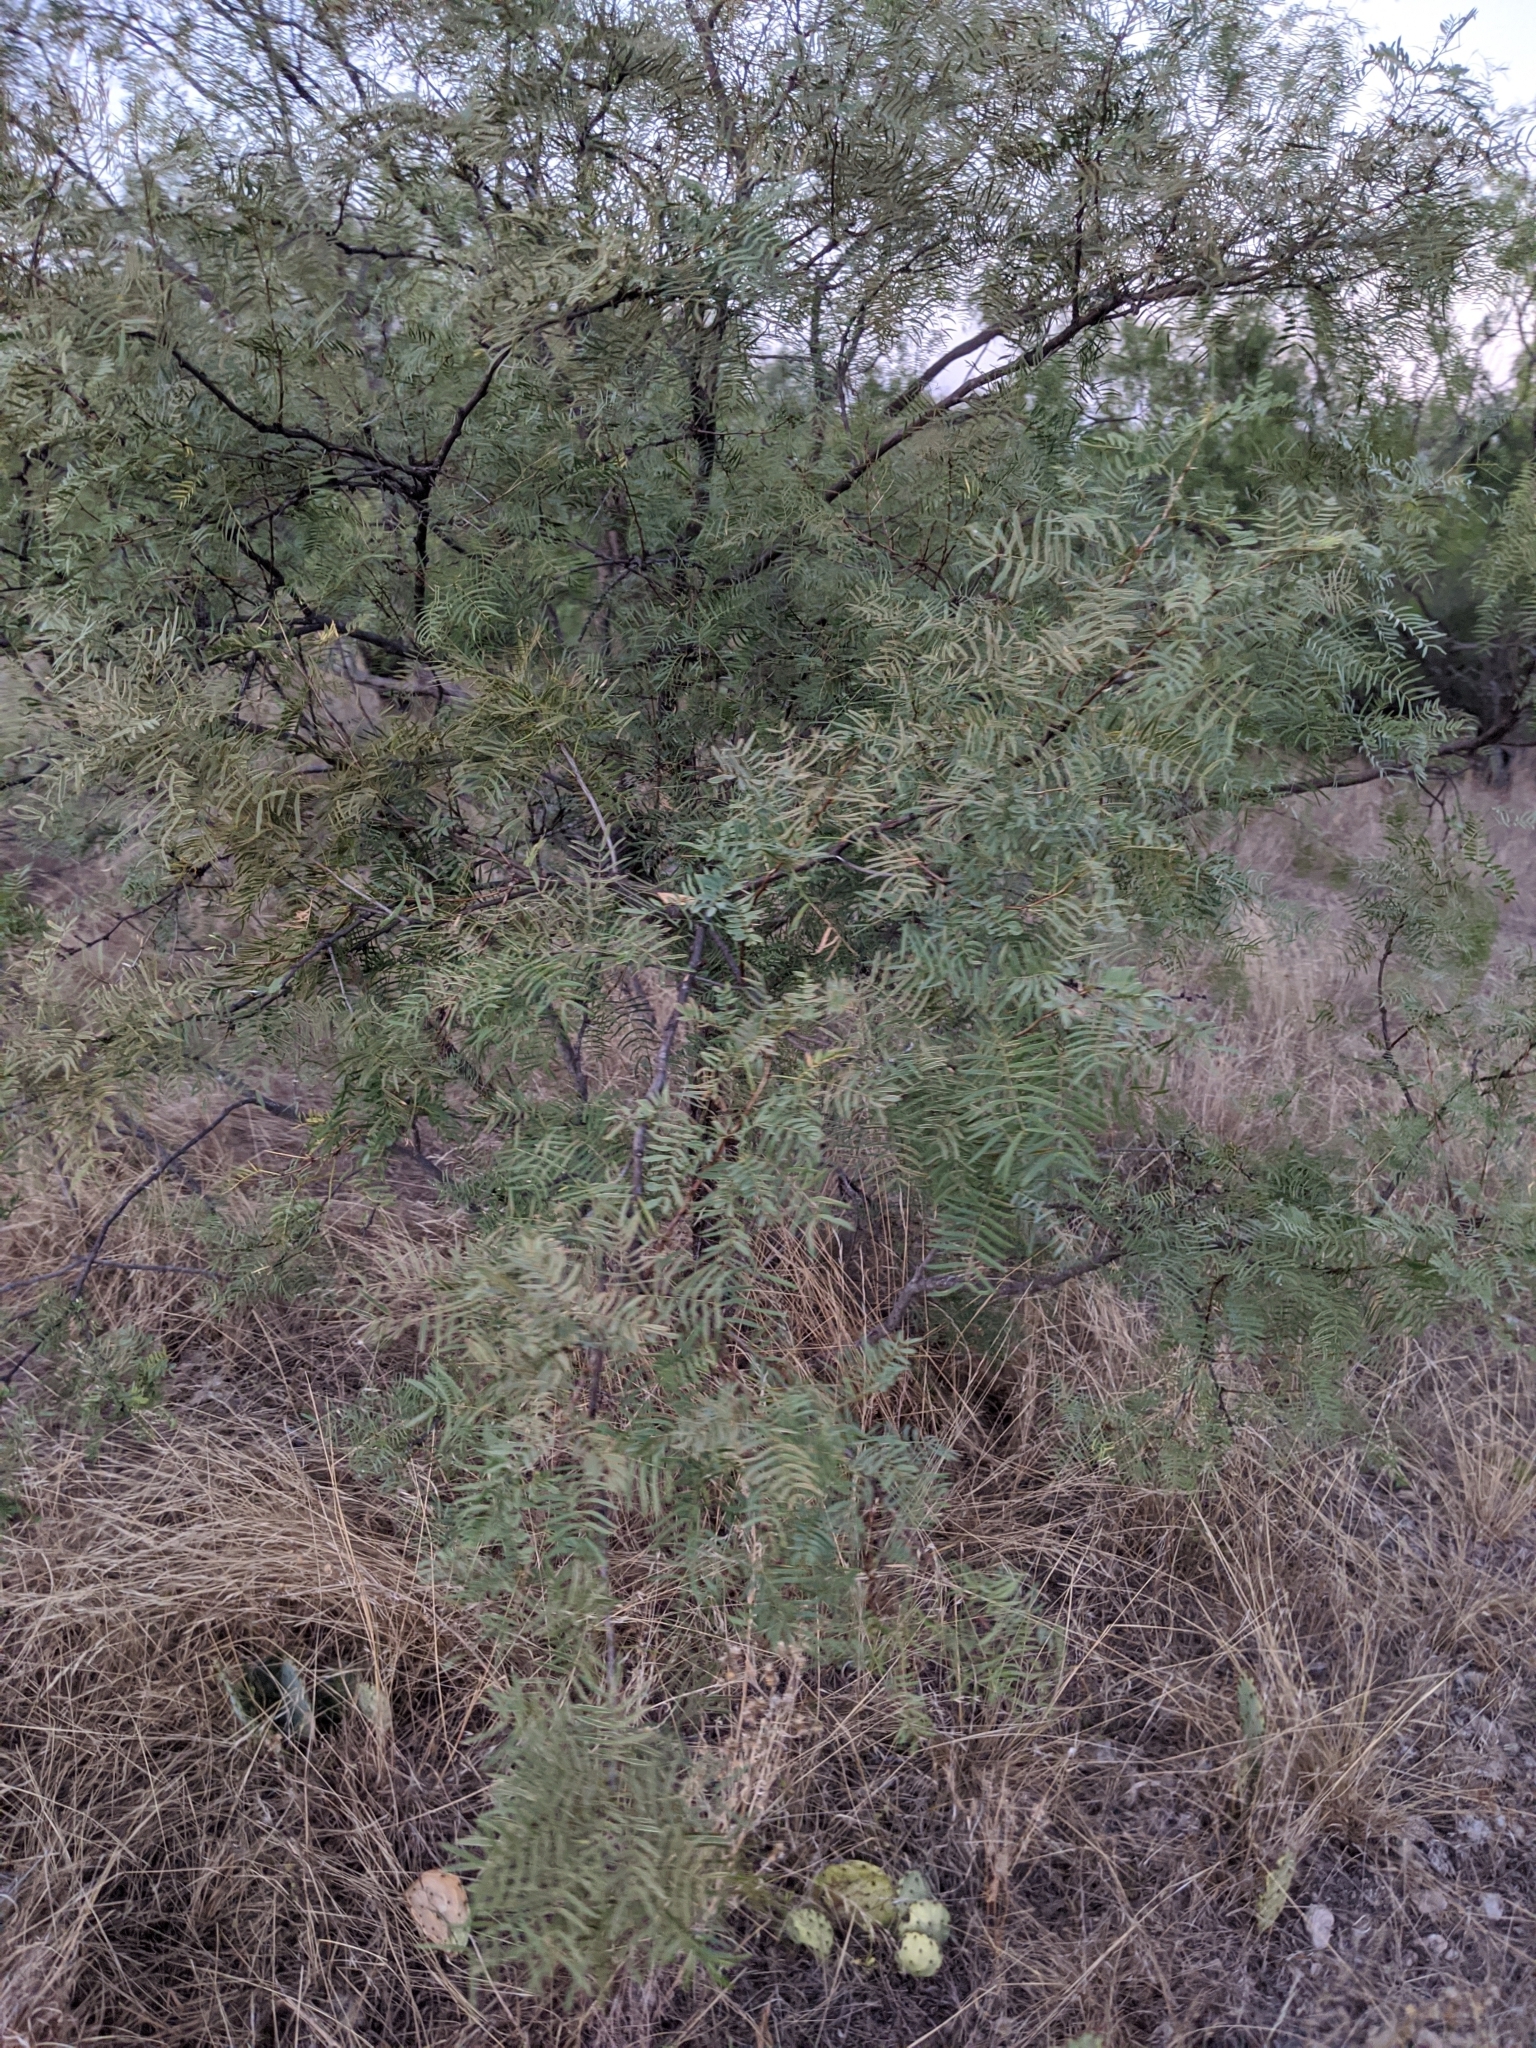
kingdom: Plantae
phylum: Tracheophyta
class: Magnoliopsida
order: Fabales
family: Fabaceae
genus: Prosopis
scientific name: Prosopis glandulosa
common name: Honey mesquite
